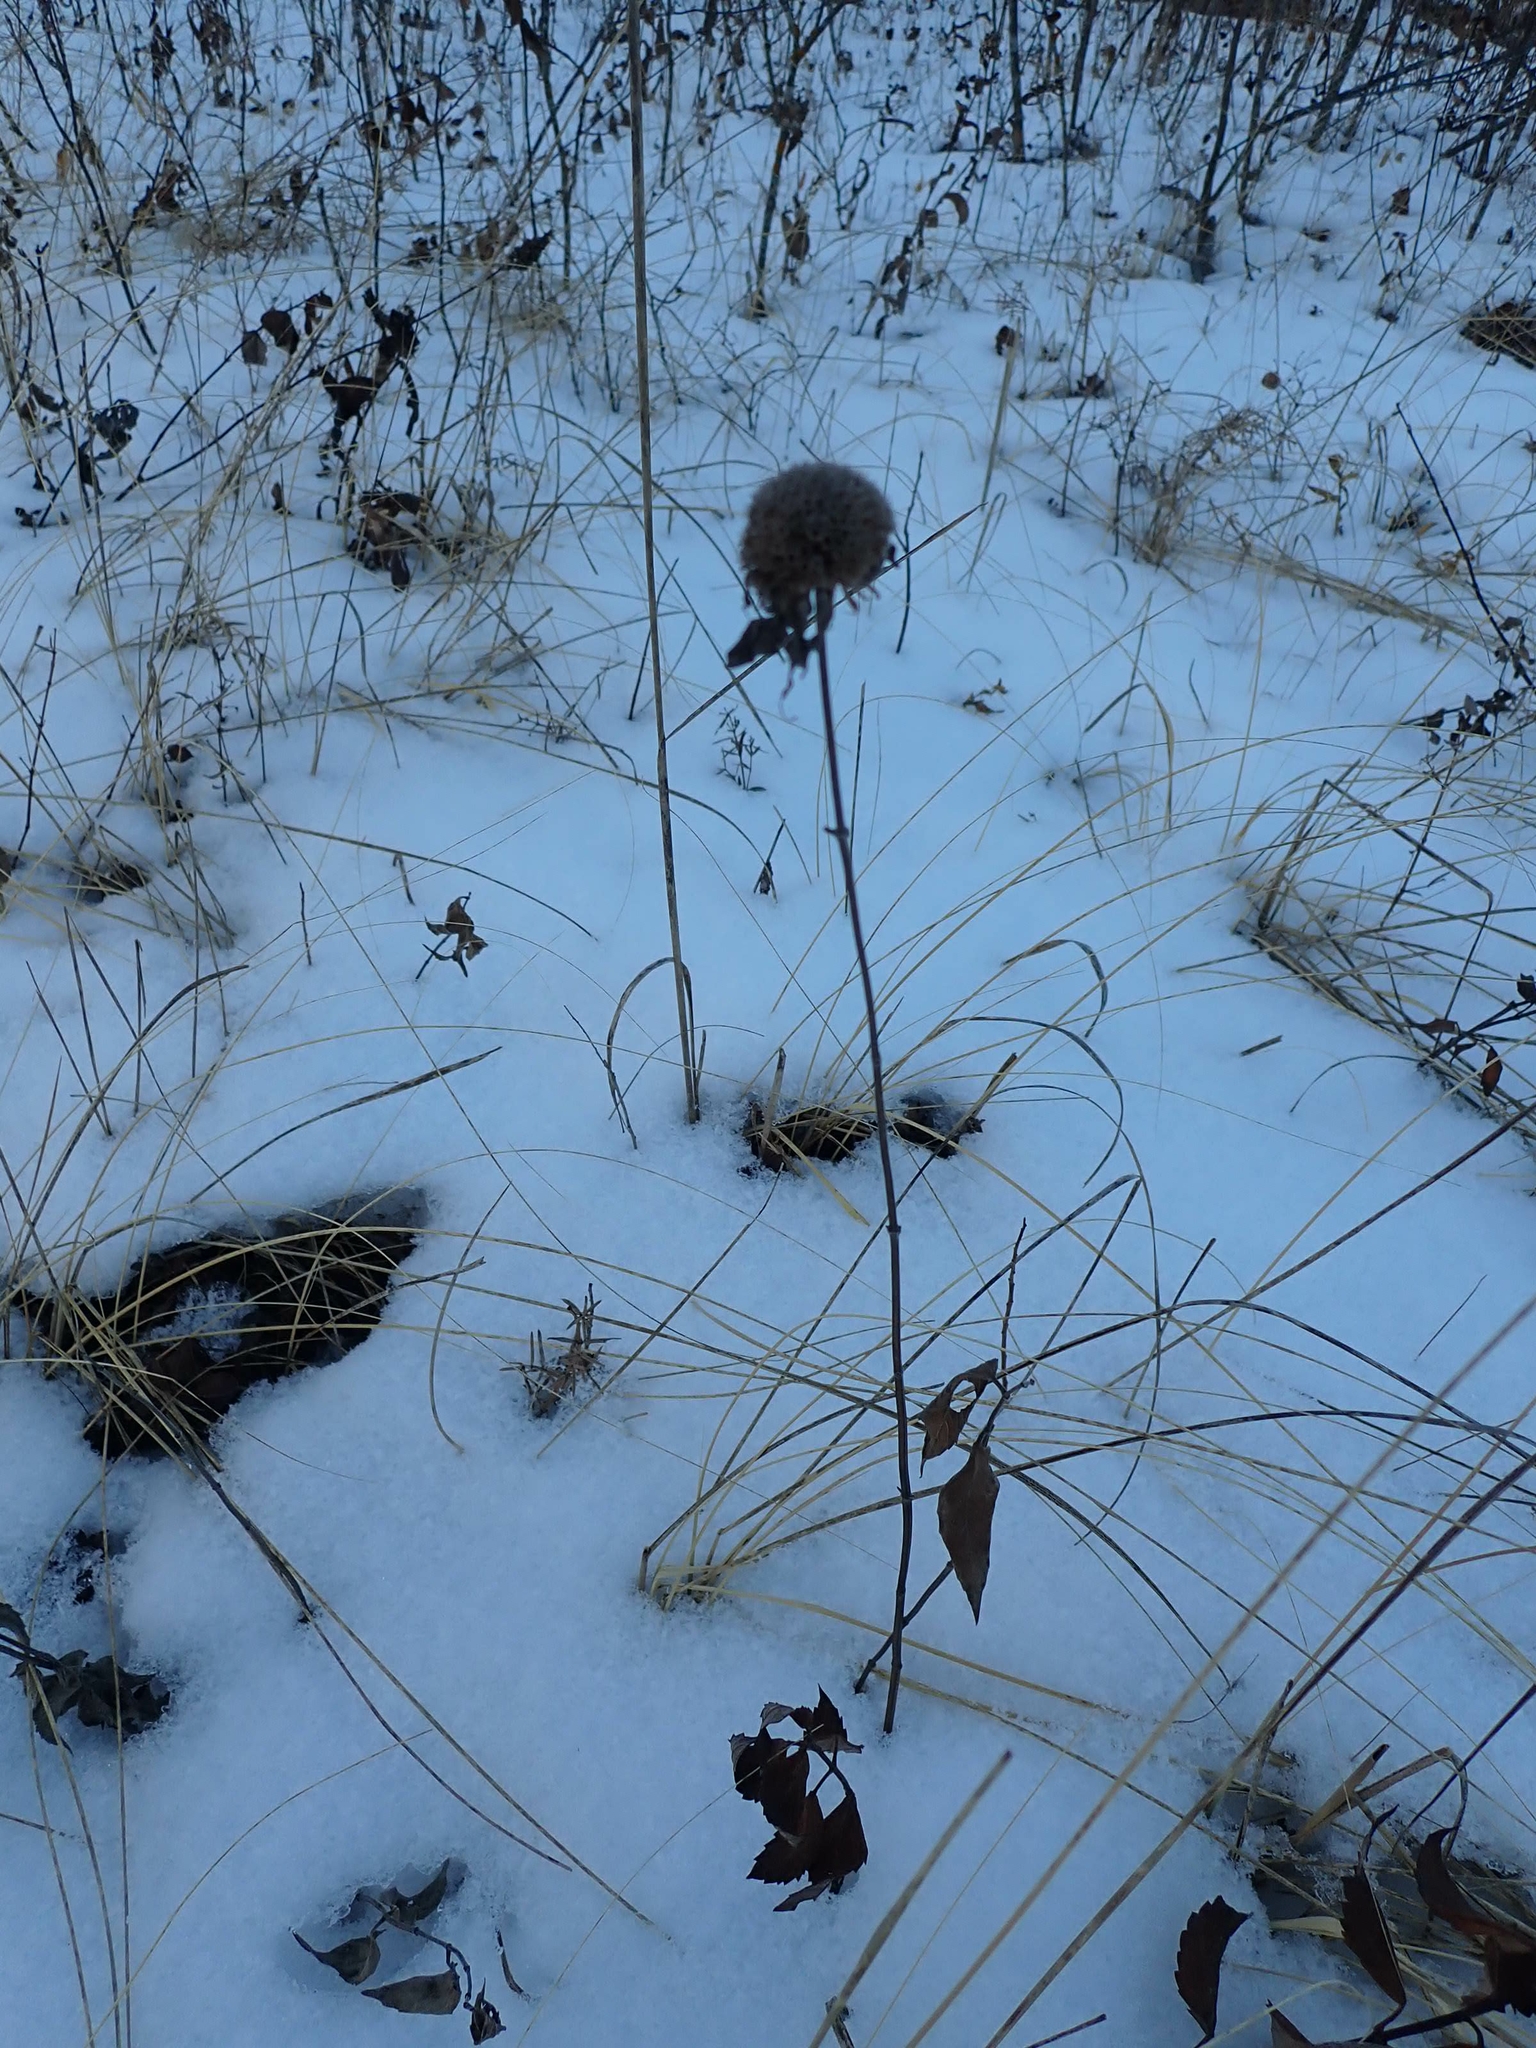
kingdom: Plantae
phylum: Tracheophyta
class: Magnoliopsida
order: Lamiales
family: Lamiaceae
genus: Monarda
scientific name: Monarda fistulosa
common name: Purple beebalm
